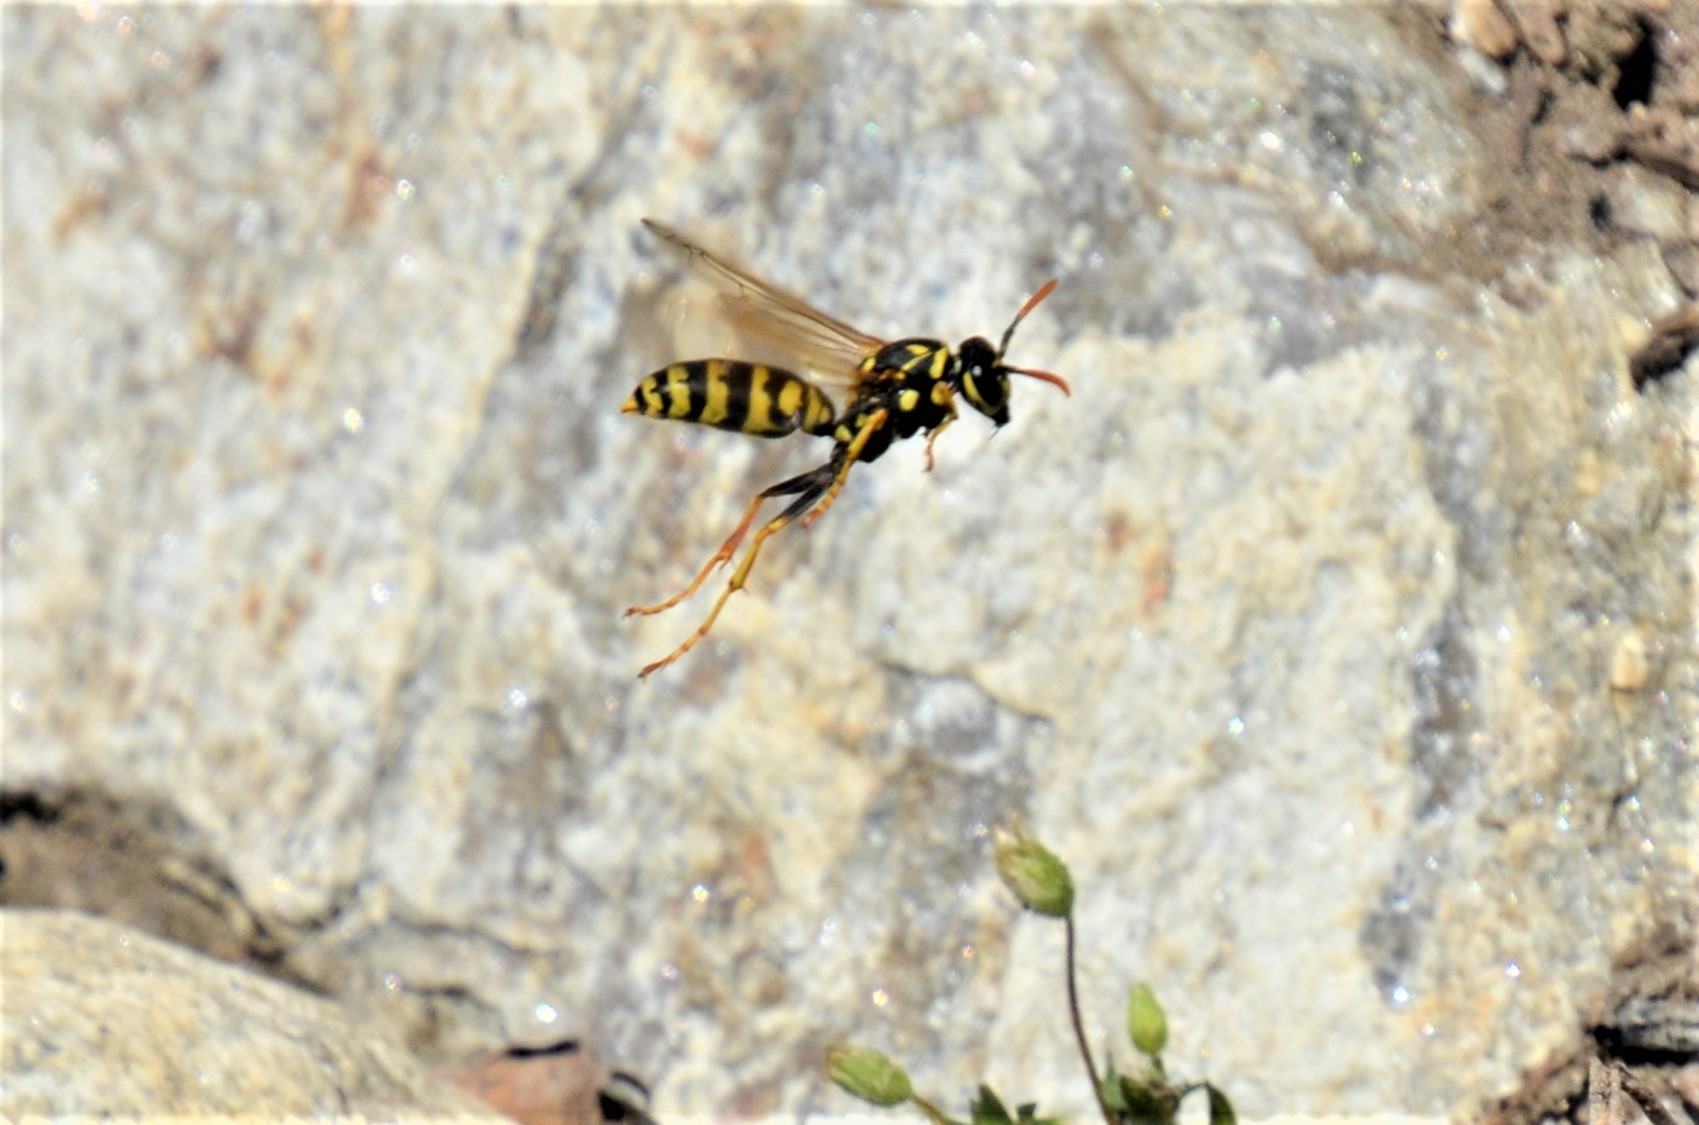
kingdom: Animalia
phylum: Arthropoda
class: Insecta
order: Hymenoptera
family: Eumenidae
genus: Polistes
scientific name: Polistes dominula
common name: Paper wasp
